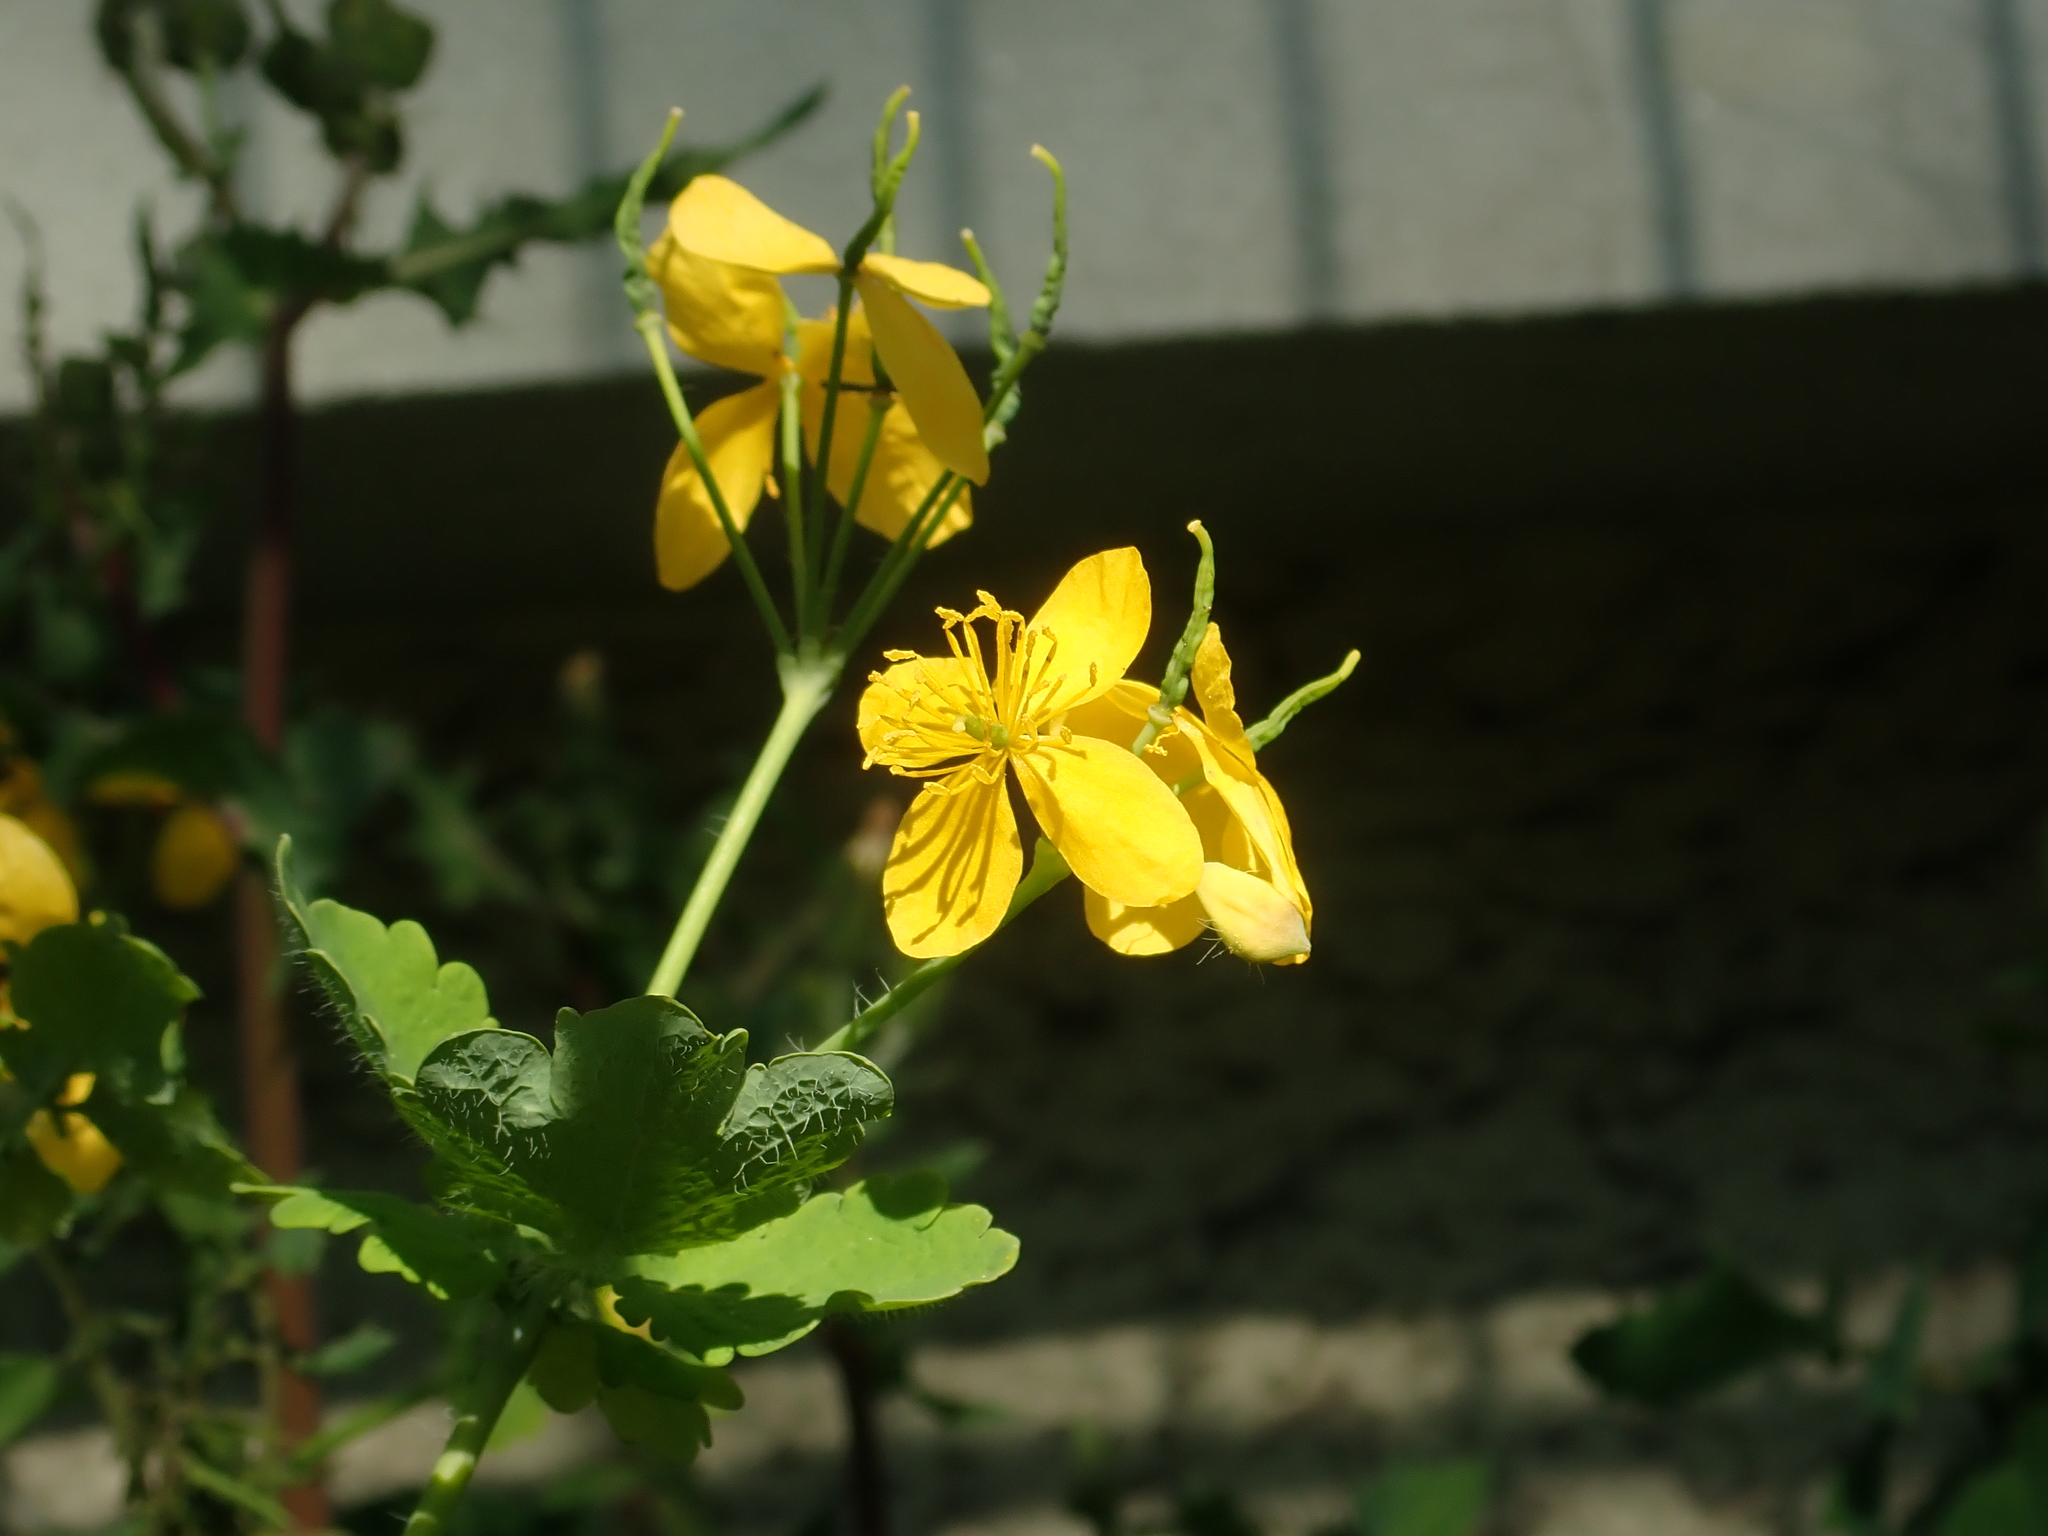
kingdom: Plantae
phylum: Tracheophyta
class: Magnoliopsida
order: Ranunculales
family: Papaveraceae
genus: Chelidonium
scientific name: Chelidonium majus
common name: Greater celandine
